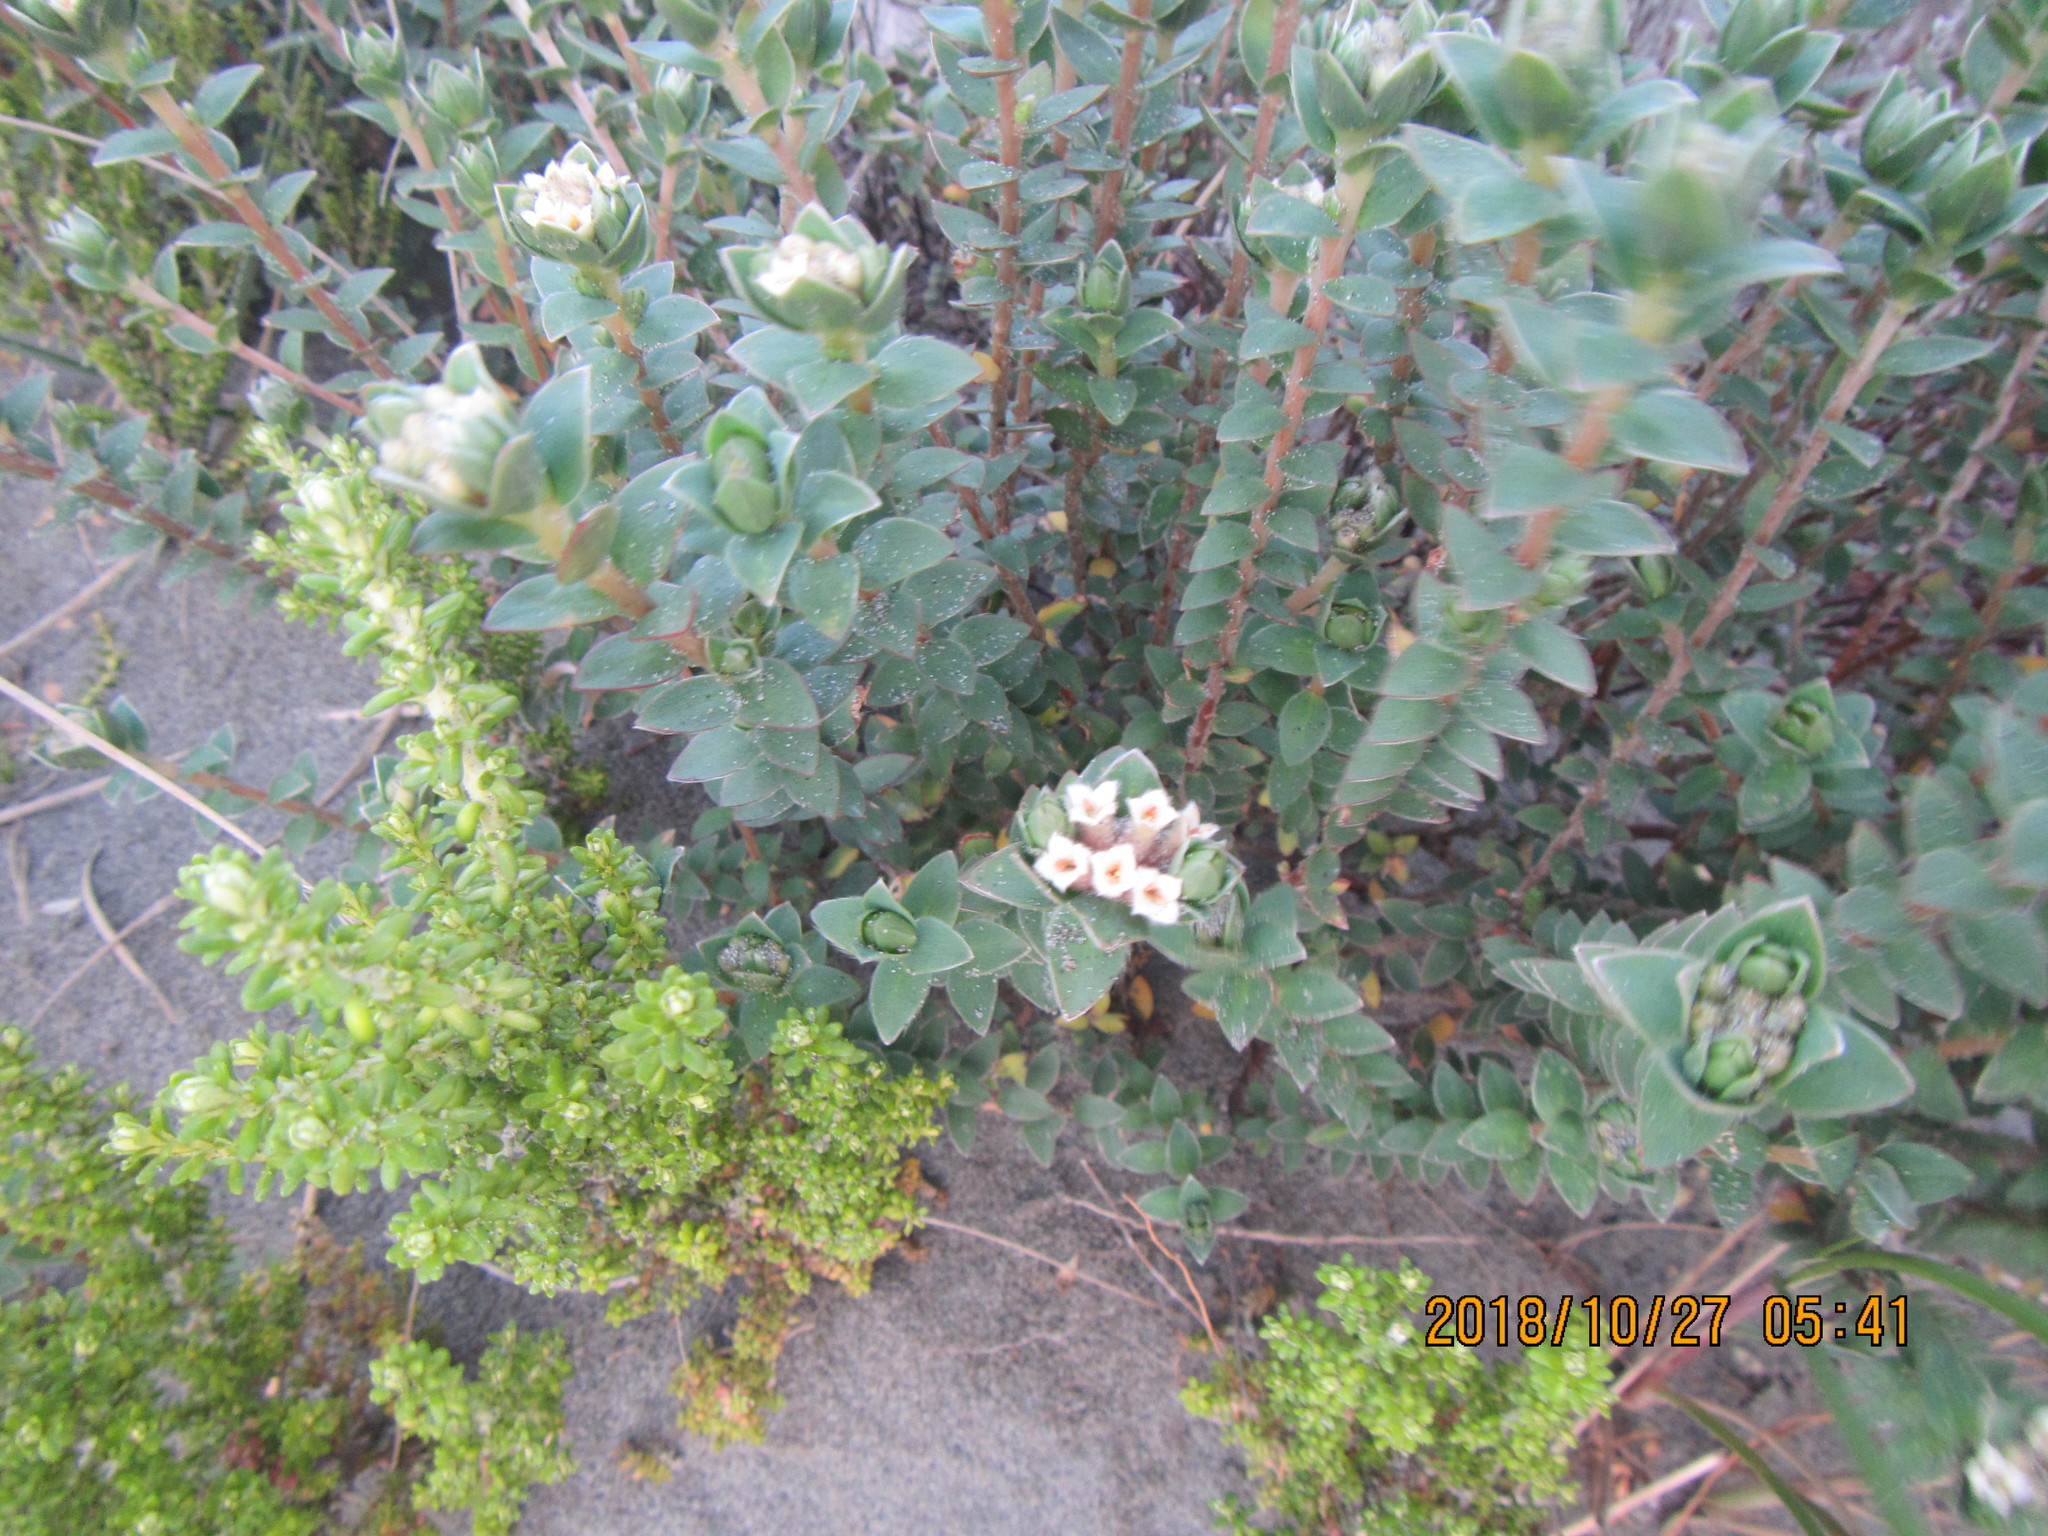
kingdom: Plantae
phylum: Tracheophyta
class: Magnoliopsida
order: Malvales
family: Thymelaeaceae
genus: Pimelea
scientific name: Pimelea villosa
